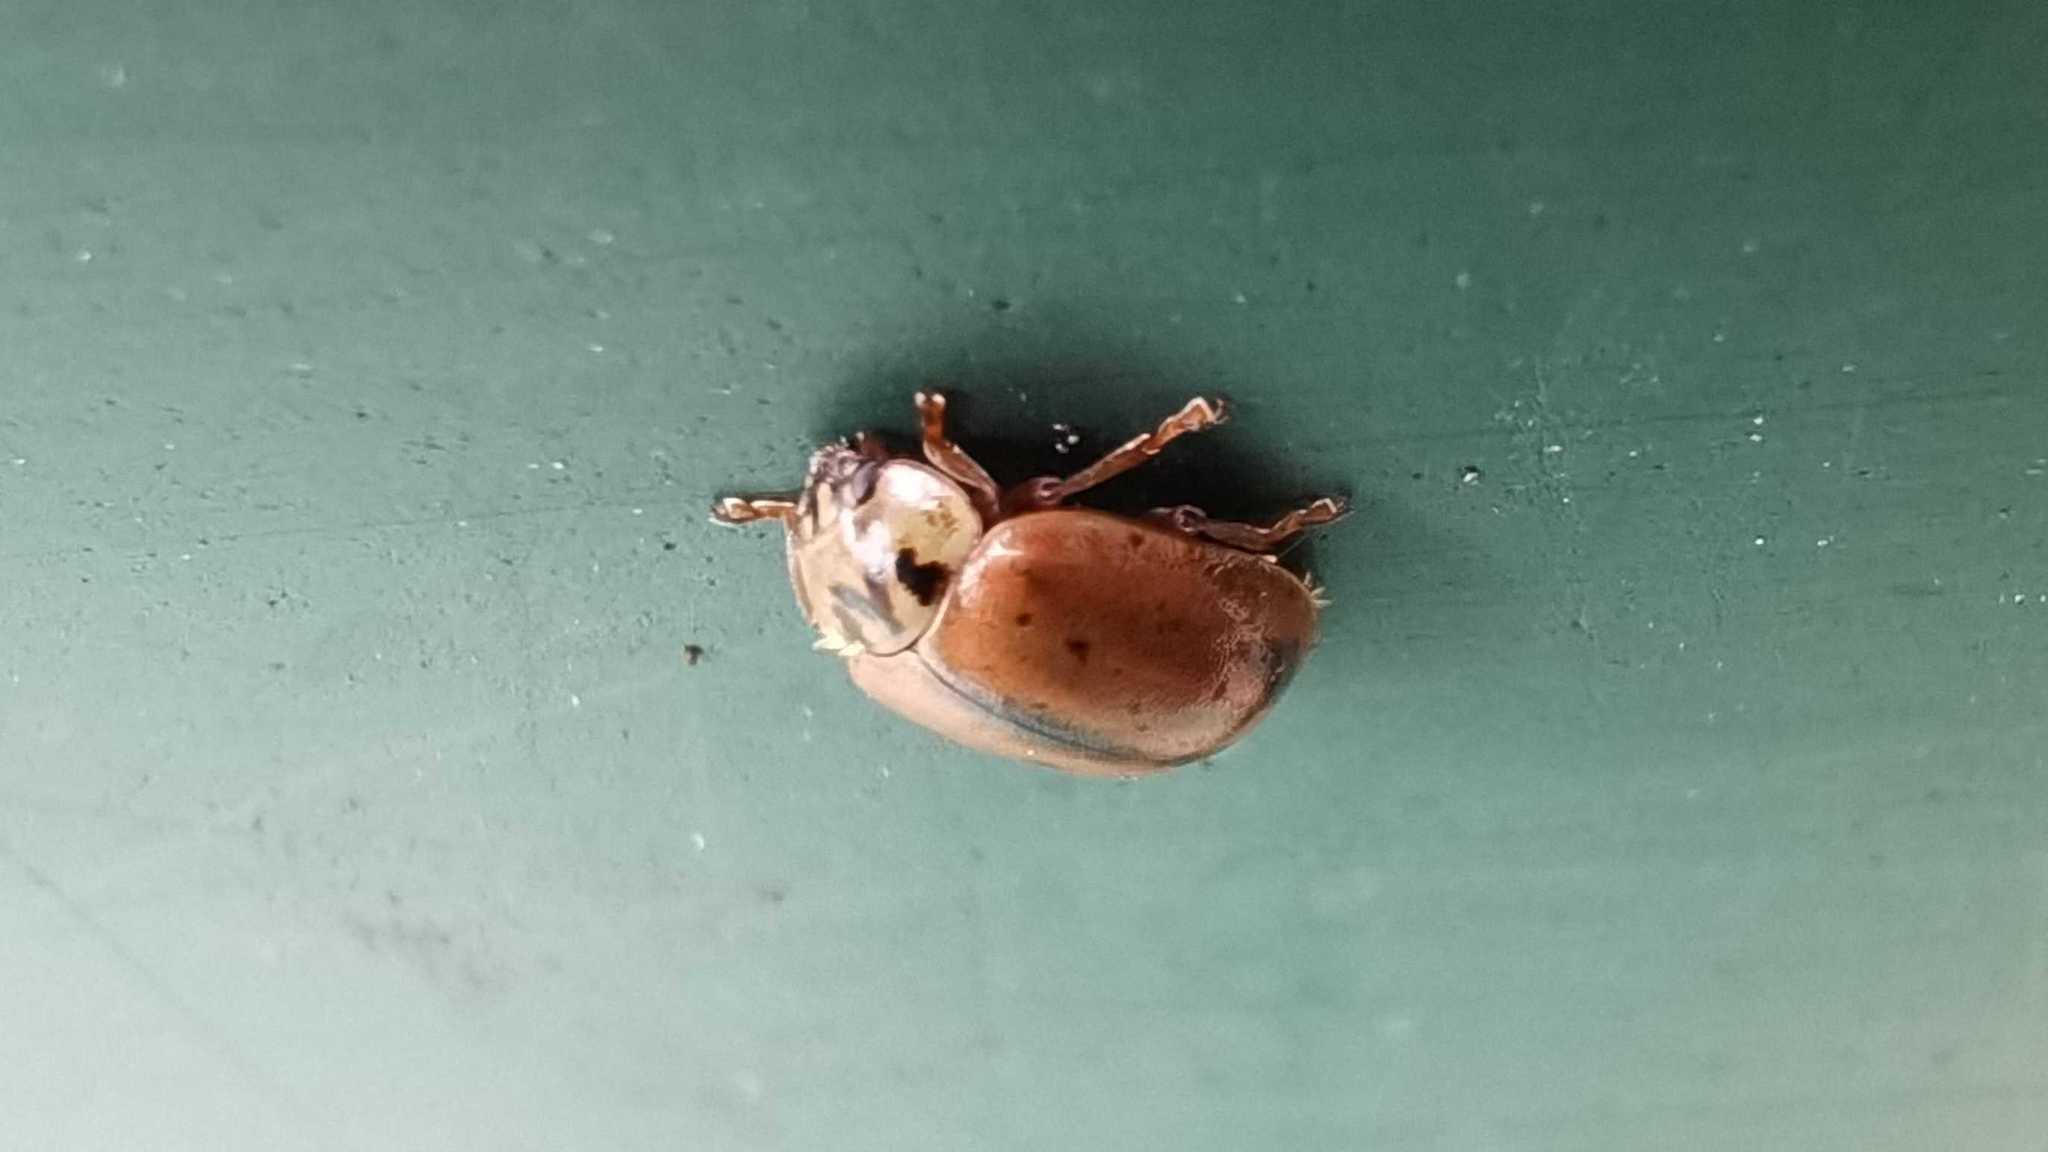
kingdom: Animalia
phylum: Arthropoda
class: Insecta
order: Coleoptera
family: Coccinellidae
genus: Aphidecta
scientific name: Aphidecta obliterata
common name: Larch ladybird
